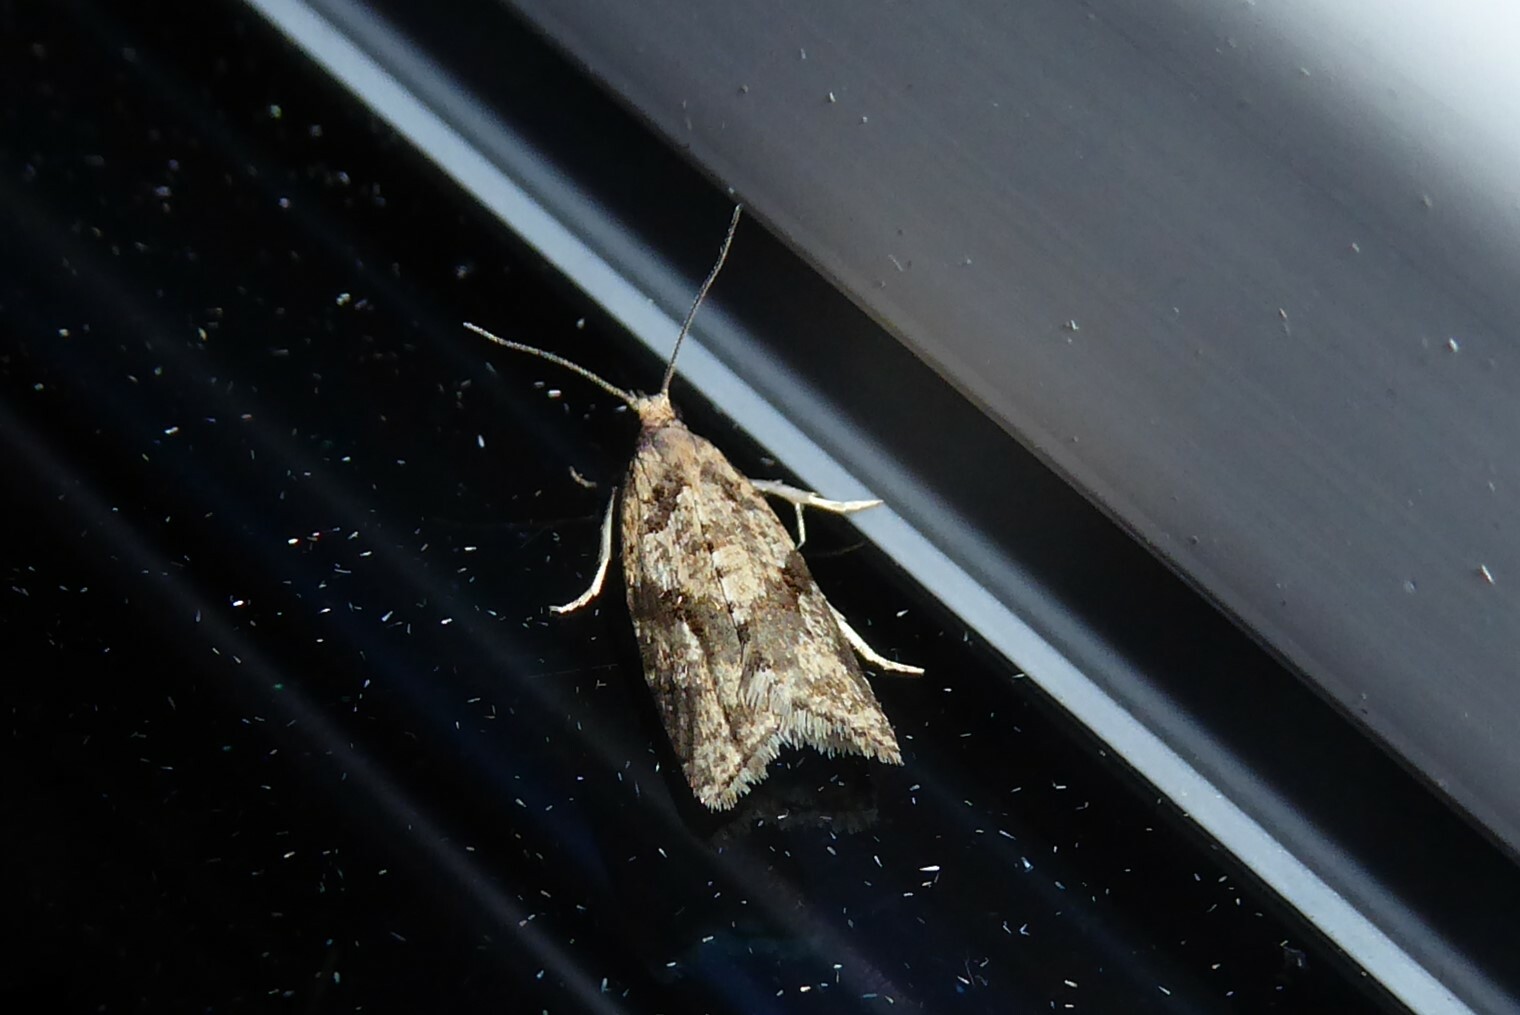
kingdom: Animalia
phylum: Arthropoda
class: Insecta
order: Lepidoptera
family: Tortricidae
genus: Capua
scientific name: Capua semiferana
